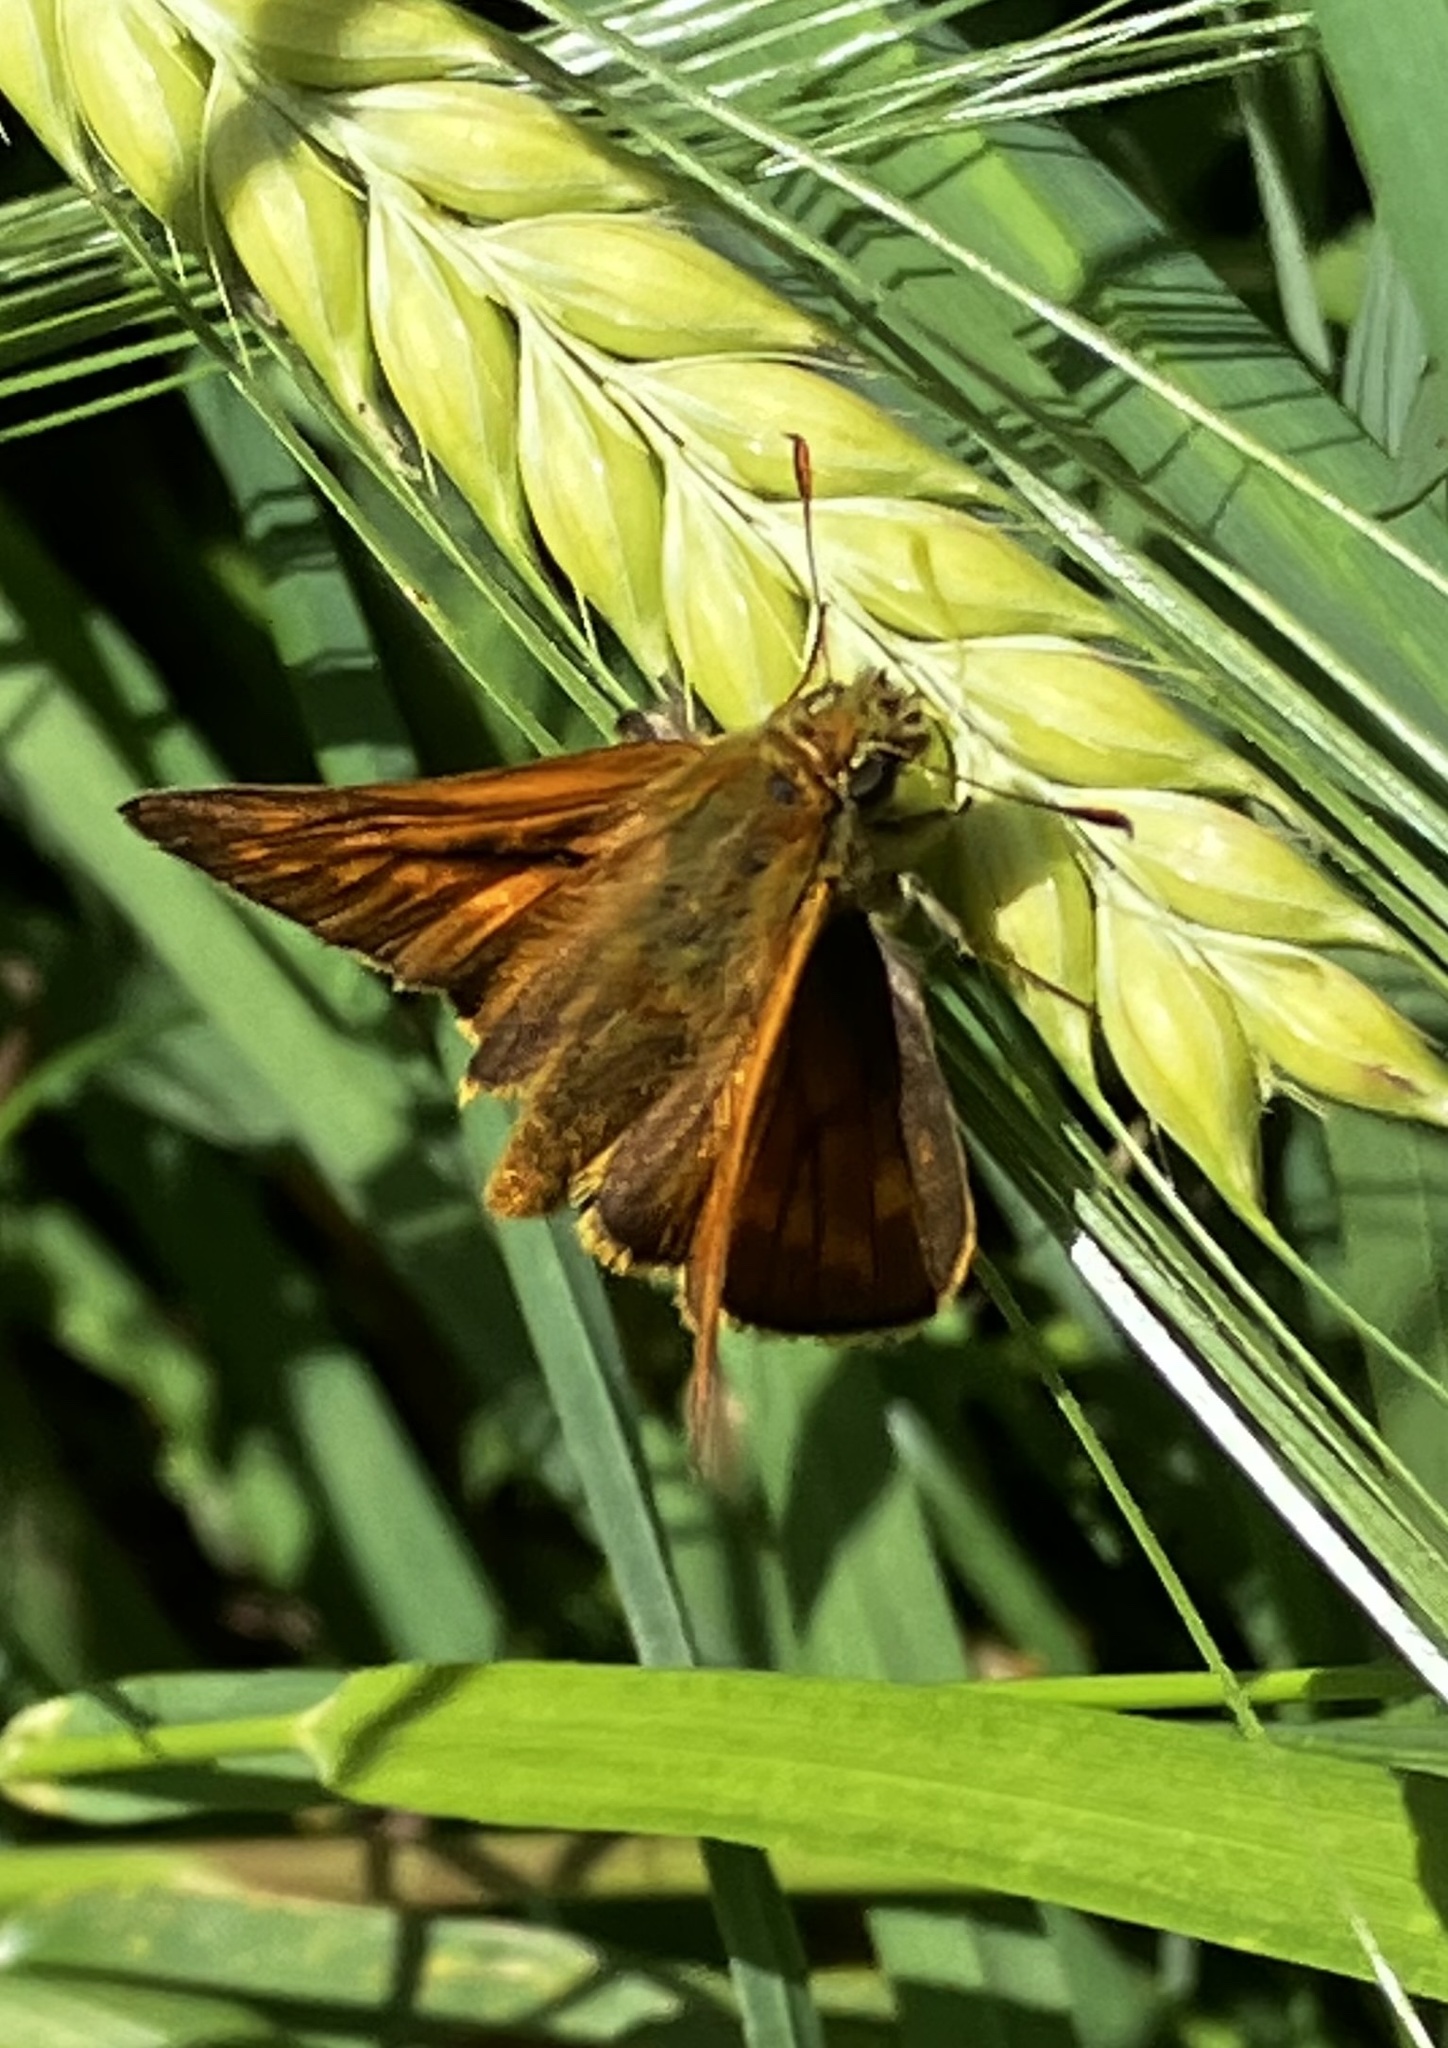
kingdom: Animalia
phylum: Arthropoda
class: Insecta
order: Lepidoptera
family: Hesperiidae
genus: Ochlodes
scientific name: Ochlodes venata
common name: Large skipper
